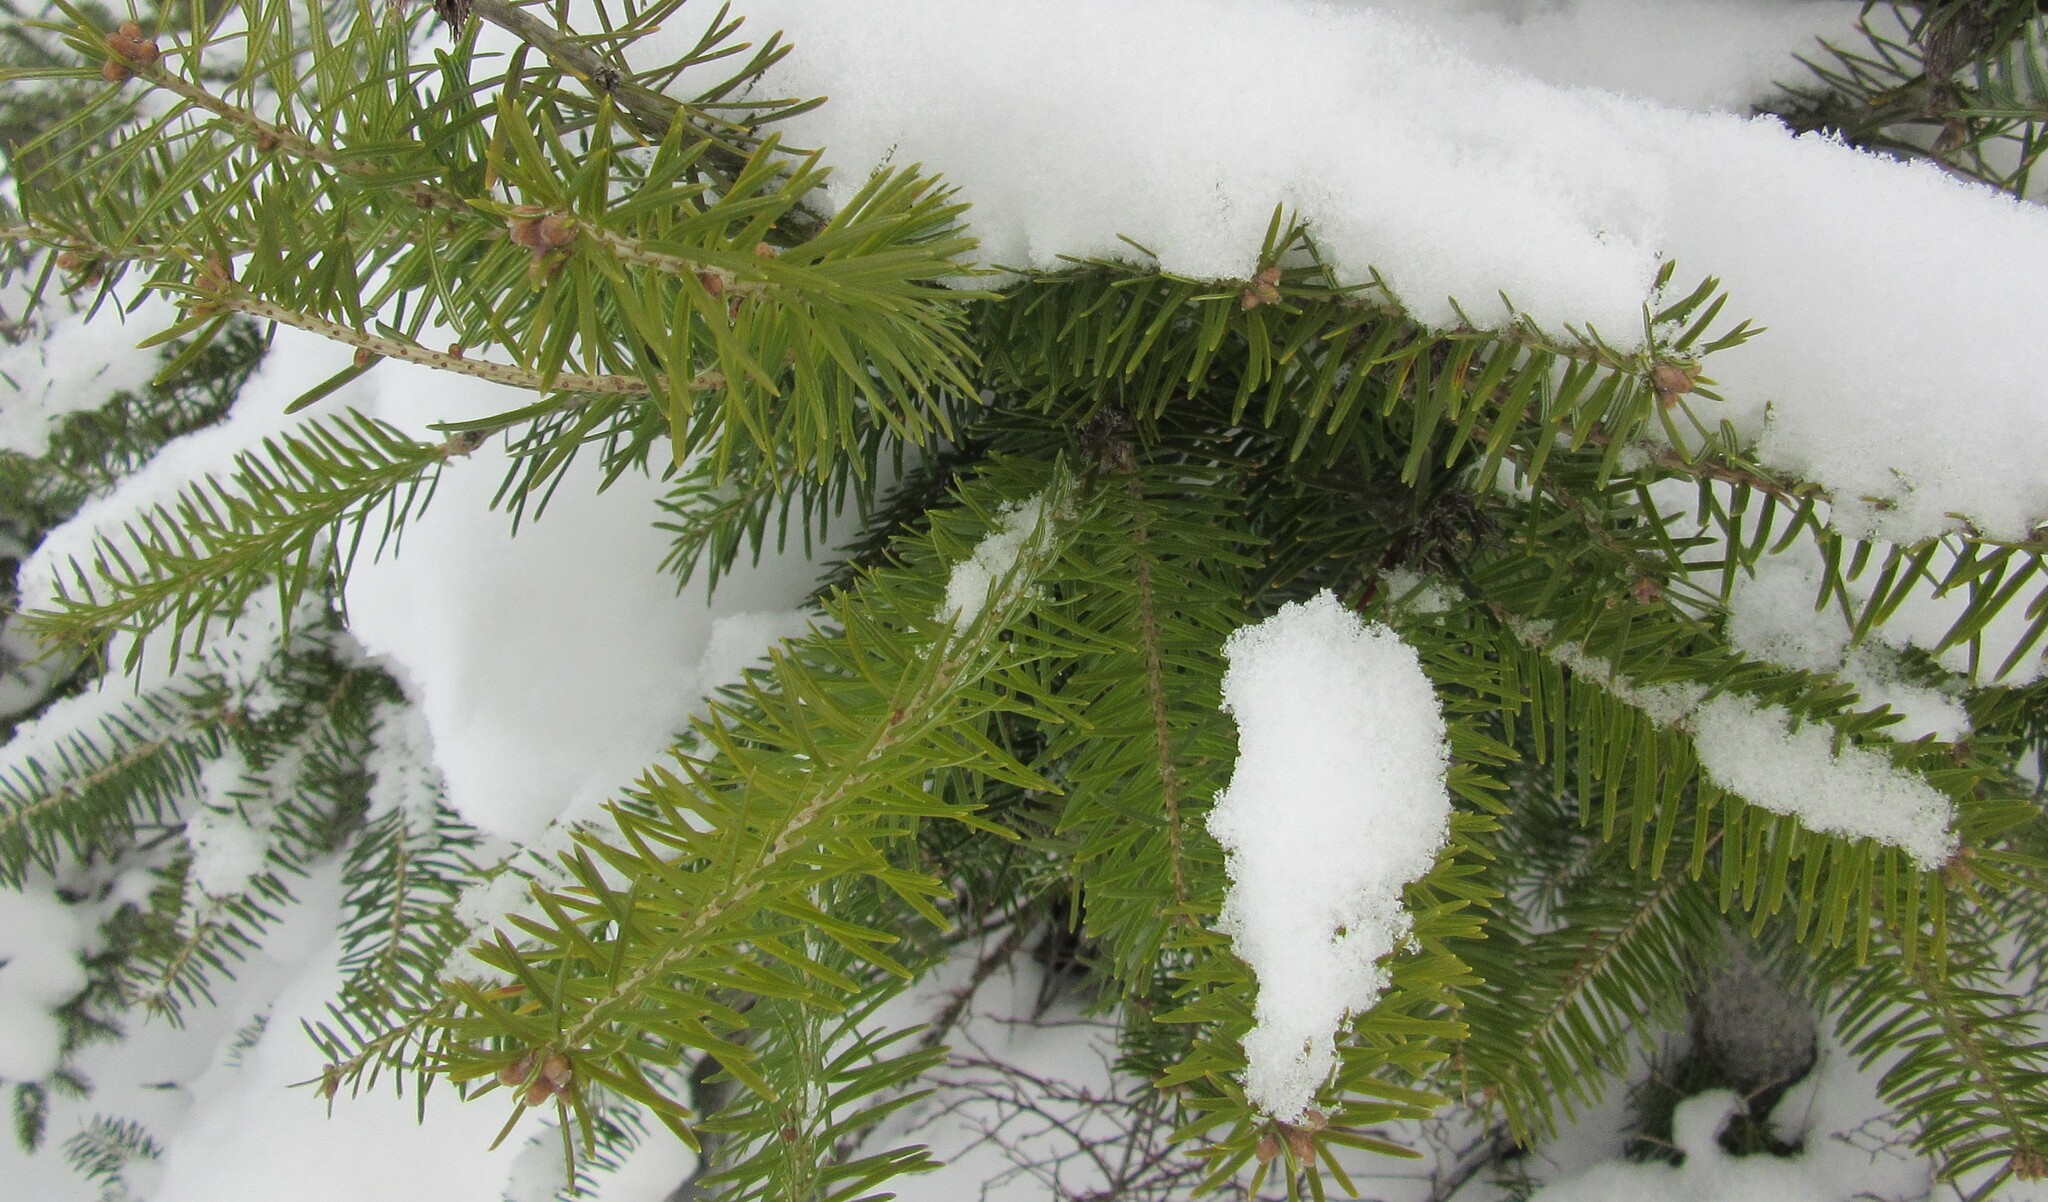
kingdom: Plantae
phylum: Tracheophyta
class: Pinopsida
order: Pinales
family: Pinaceae
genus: Abies
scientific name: Abies balsamea
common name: Balsam fir
